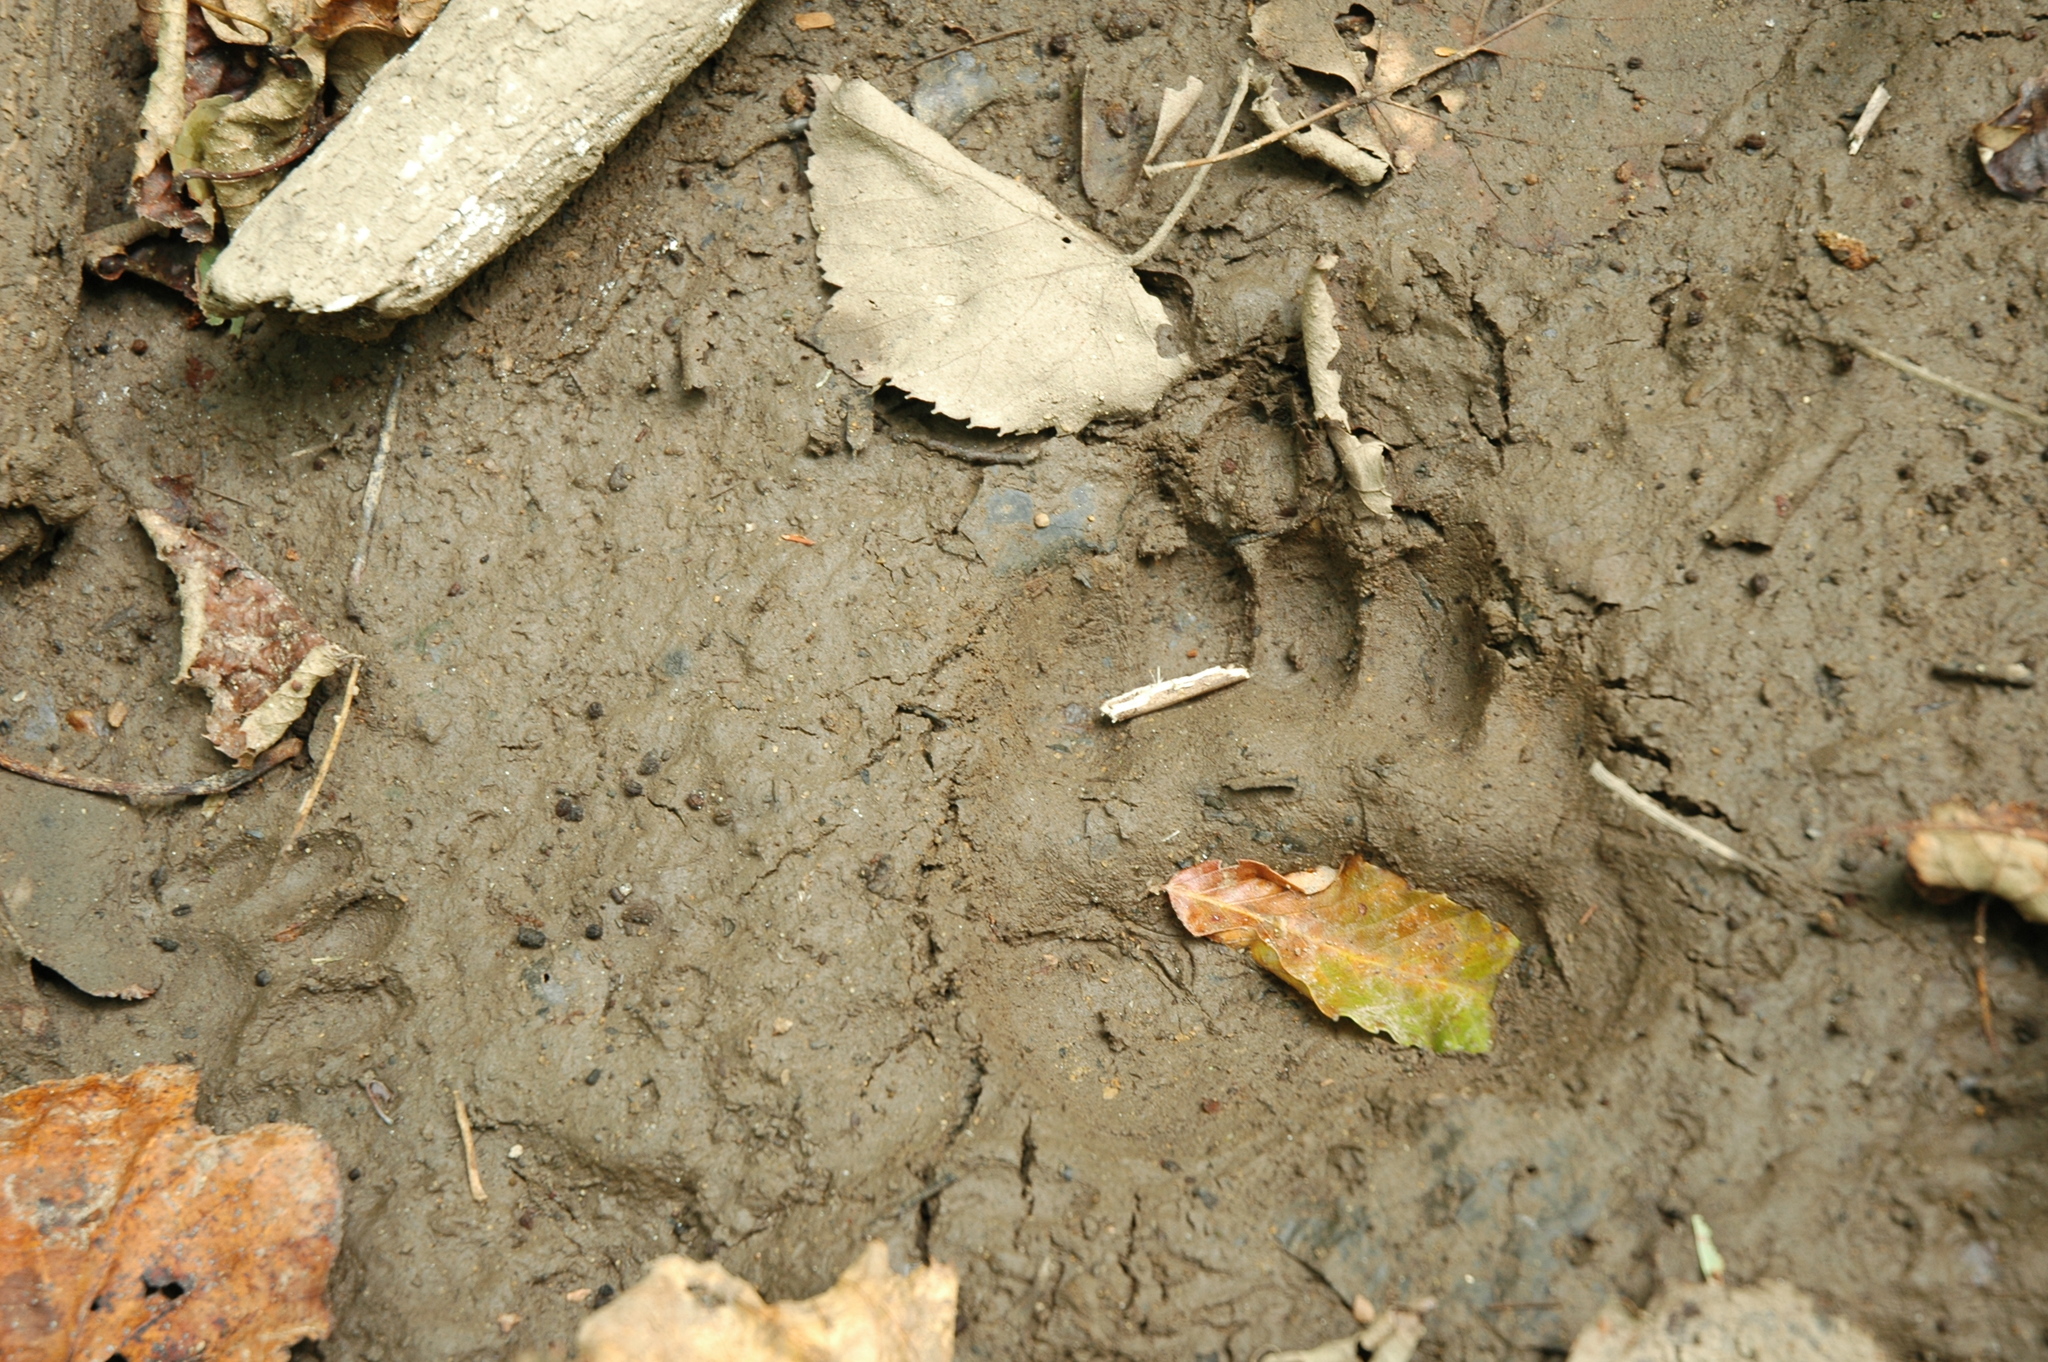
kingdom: Animalia
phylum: Chordata
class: Mammalia
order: Carnivora
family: Ursidae
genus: Ursus
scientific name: Ursus americanus
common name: American black bear
